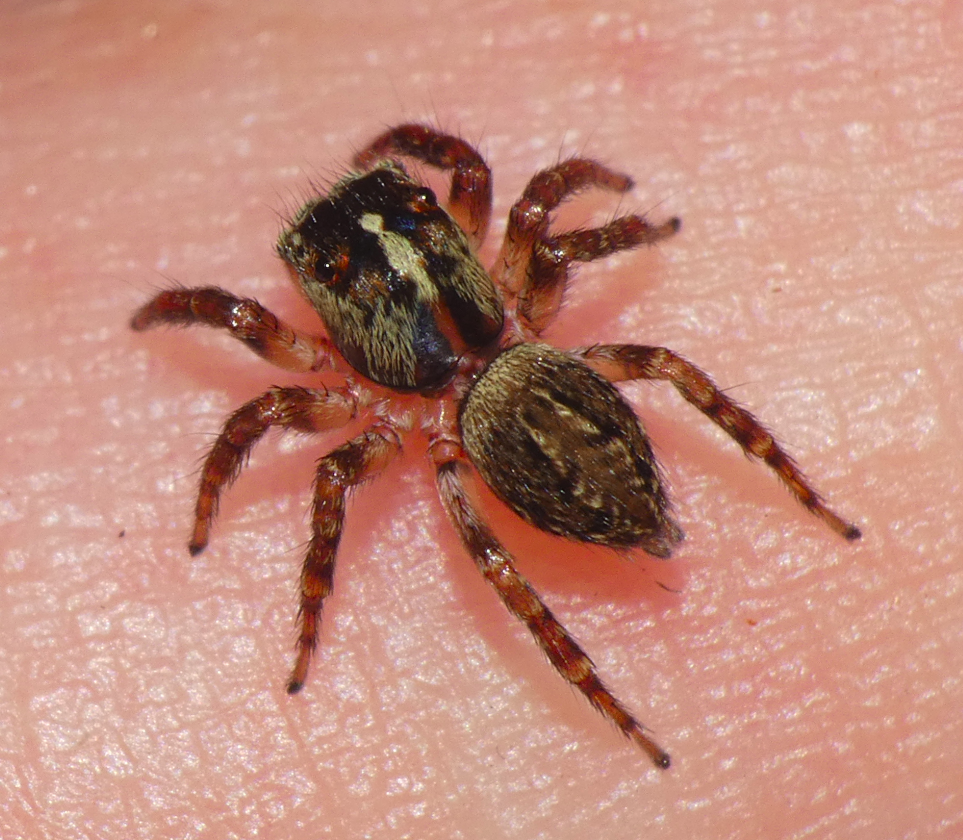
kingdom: Animalia
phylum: Arthropoda
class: Arachnida
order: Araneae
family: Salticidae
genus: Thyenula
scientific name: Thyenula munda
